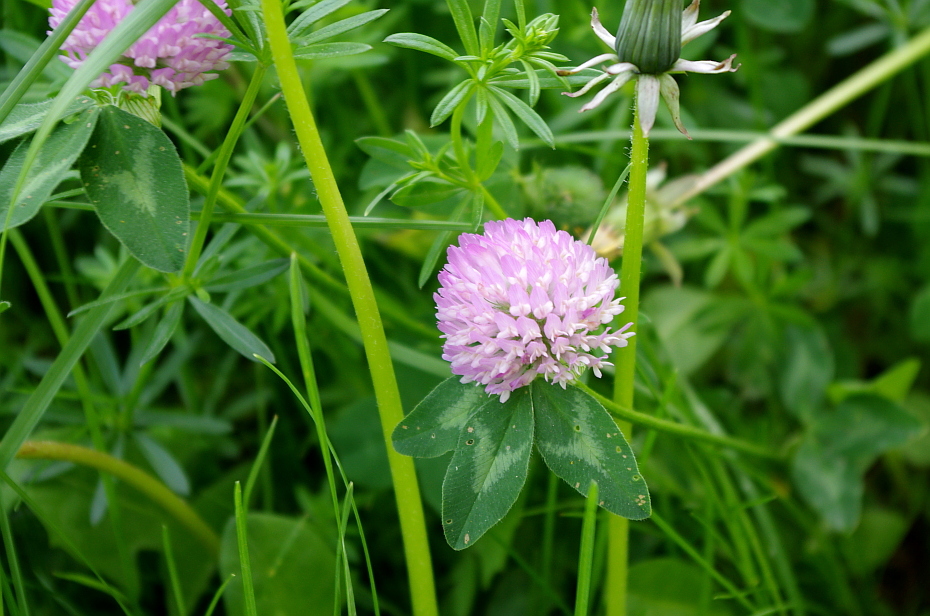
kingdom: Plantae
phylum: Tracheophyta
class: Magnoliopsida
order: Fabales
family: Fabaceae
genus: Trifolium
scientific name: Trifolium pratense
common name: Red clover
